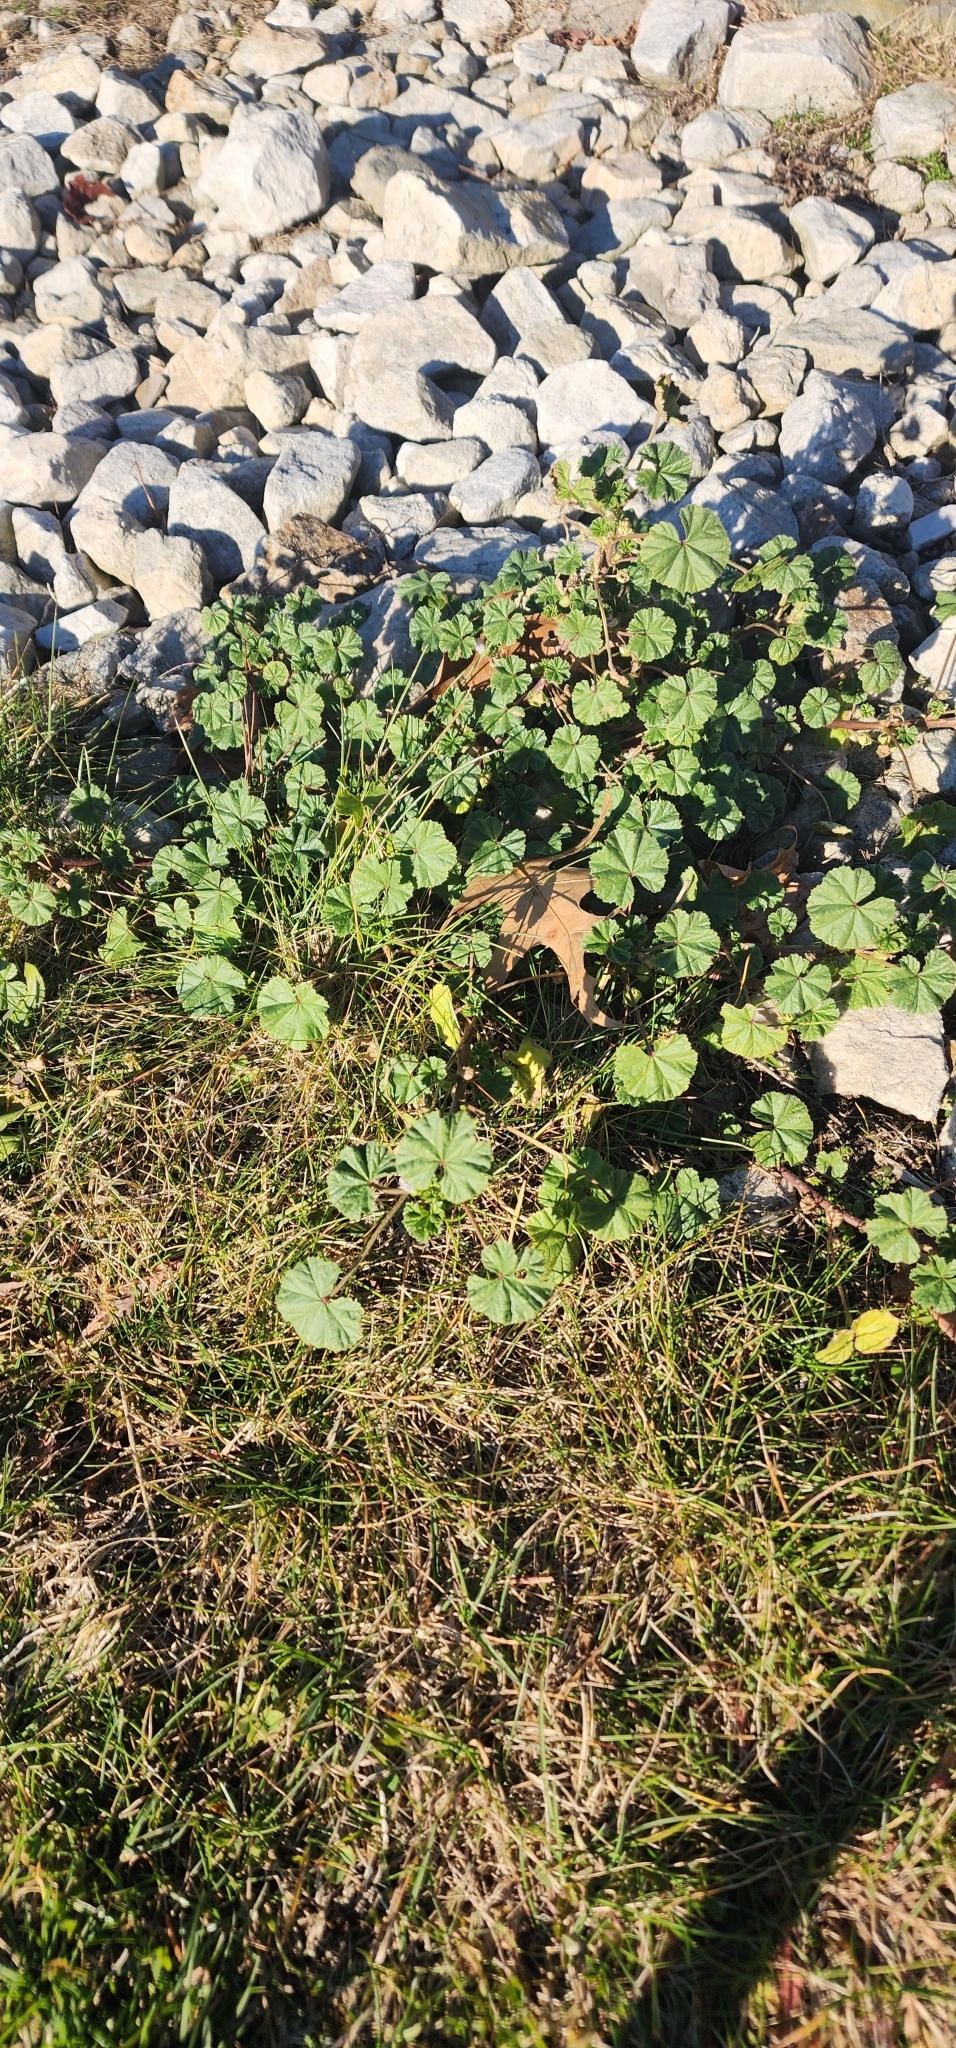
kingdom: Plantae
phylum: Tracheophyta
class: Magnoliopsida
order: Malvales
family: Malvaceae
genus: Malva
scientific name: Malva neglecta
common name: Common mallow
